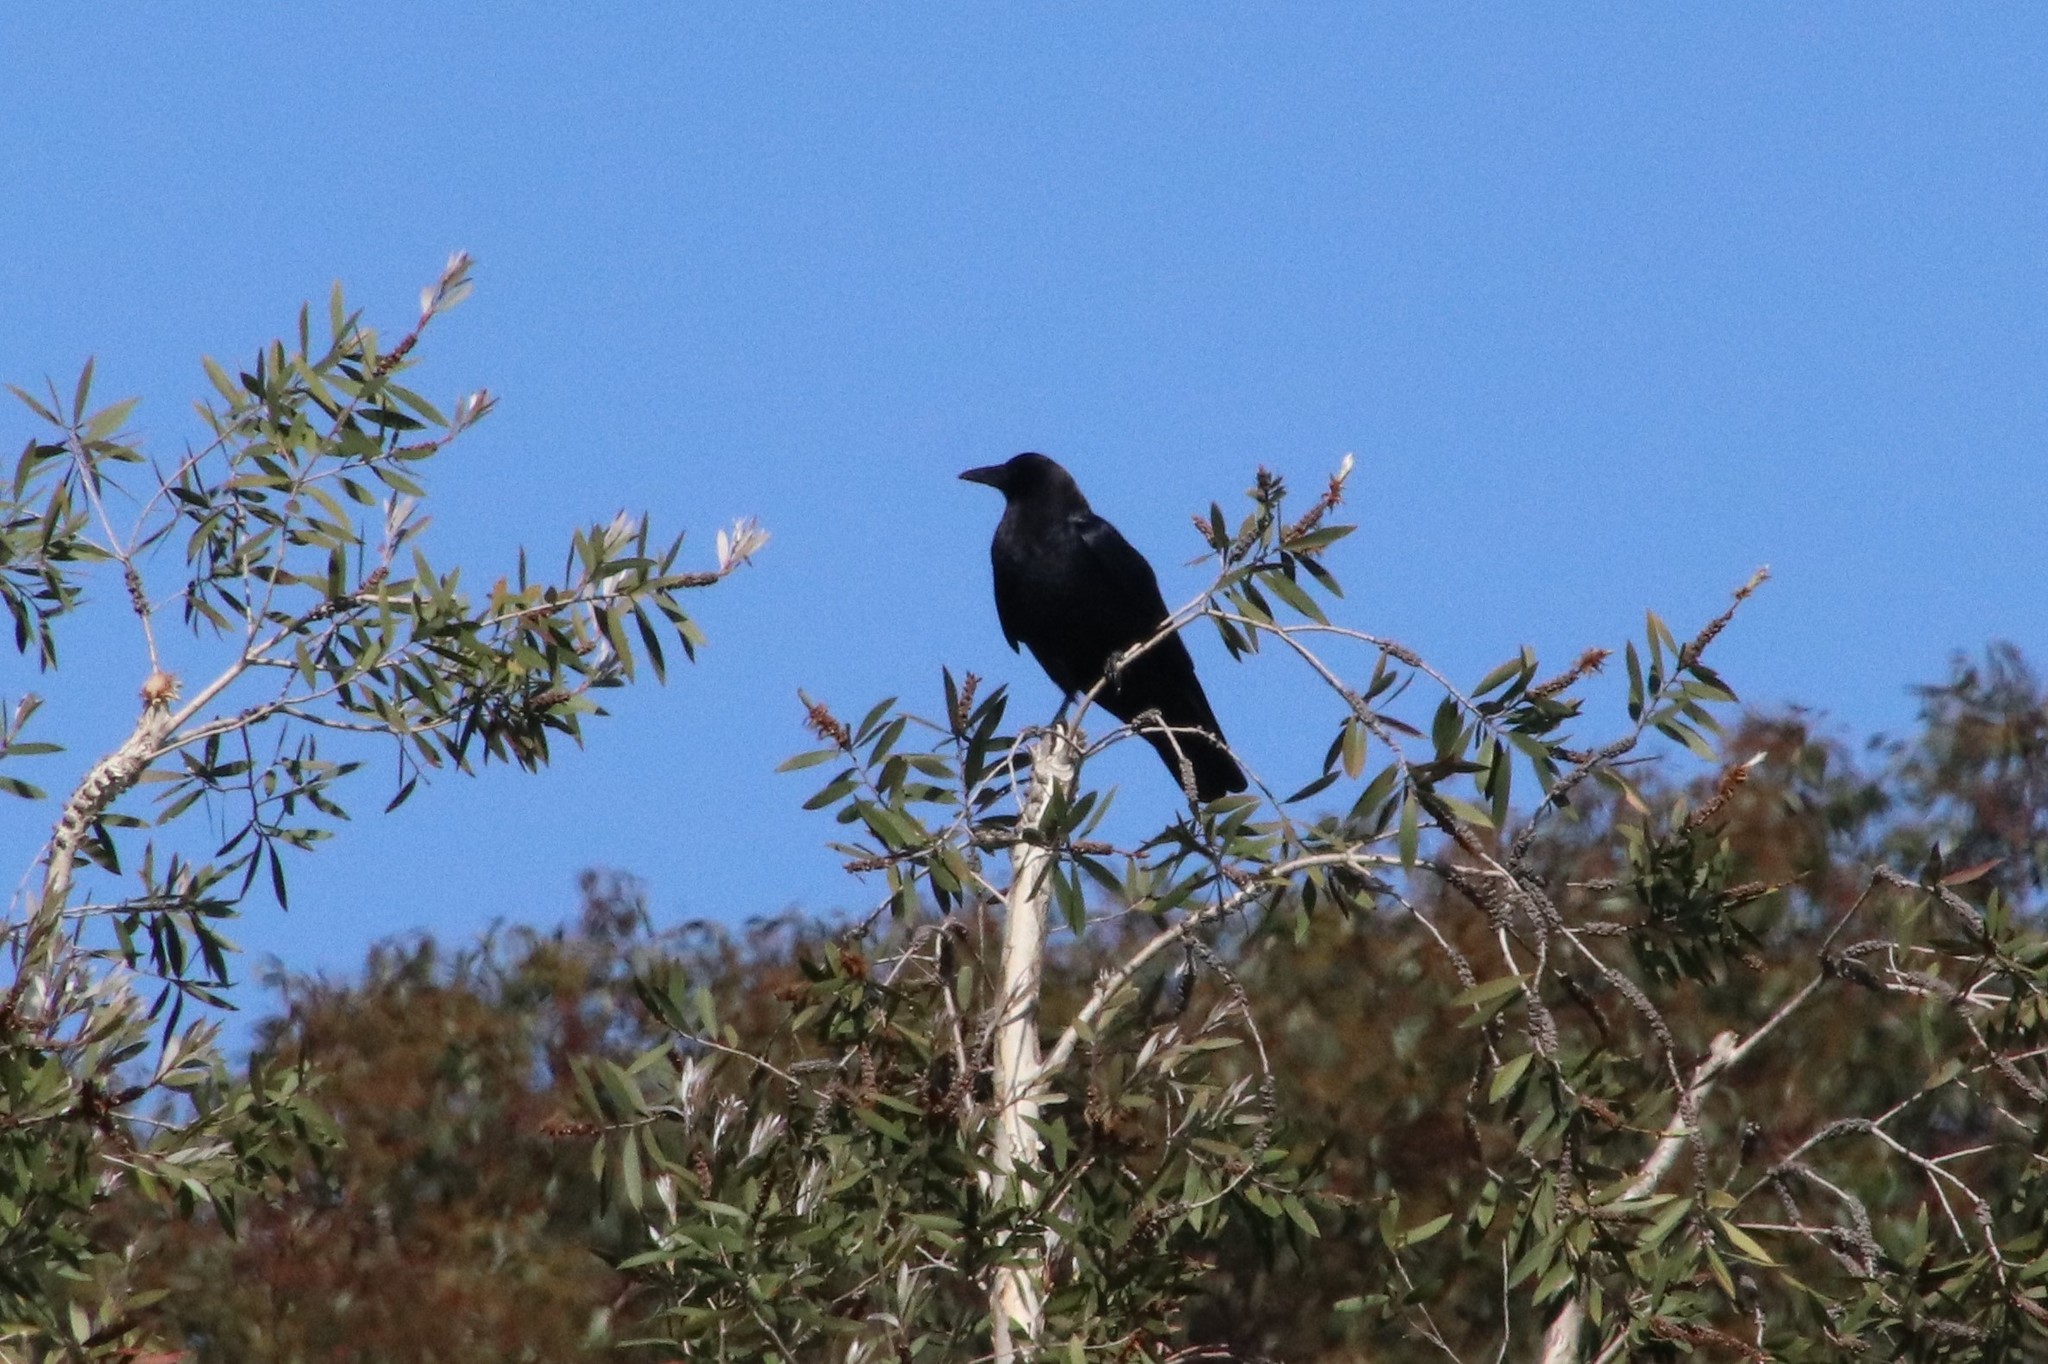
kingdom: Animalia
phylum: Chordata
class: Aves
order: Passeriformes
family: Corvidae
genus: Corvus
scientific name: Corvus brachyrhynchos
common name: American crow
